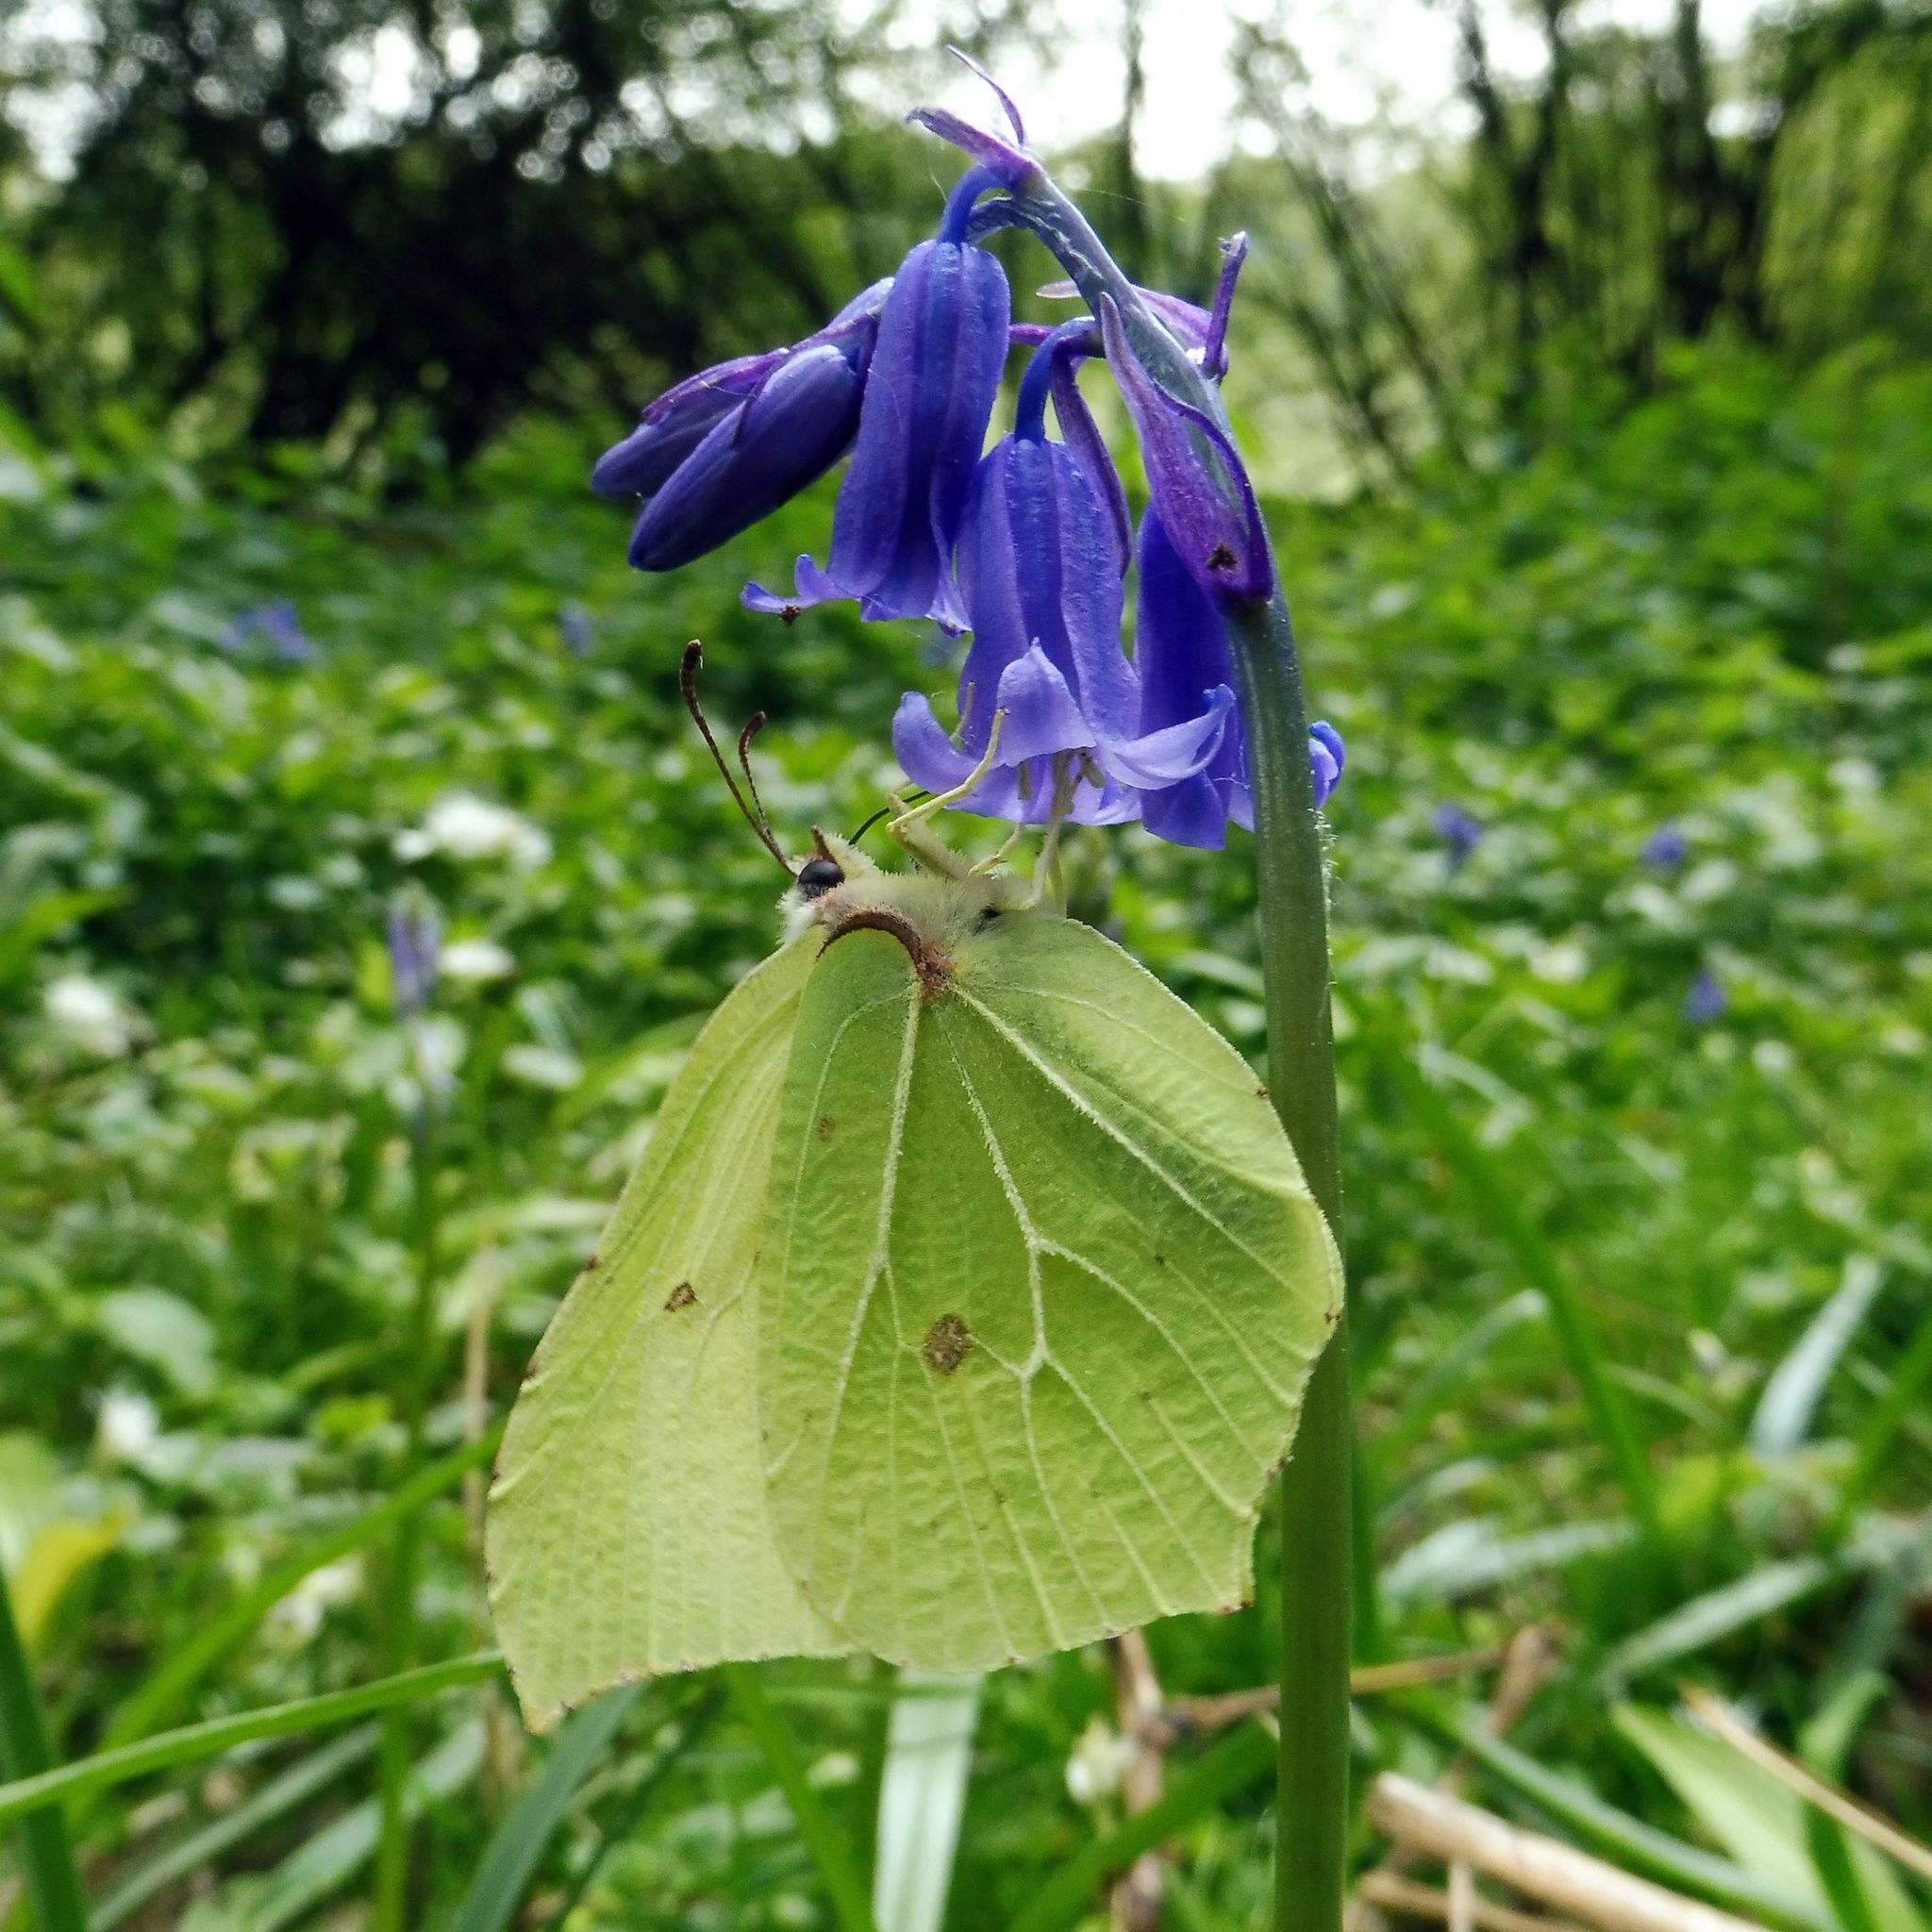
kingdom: Animalia
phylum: Arthropoda
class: Insecta
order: Lepidoptera
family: Pieridae
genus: Gonepteryx
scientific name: Gonepteryx rhamni
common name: Brimstone
